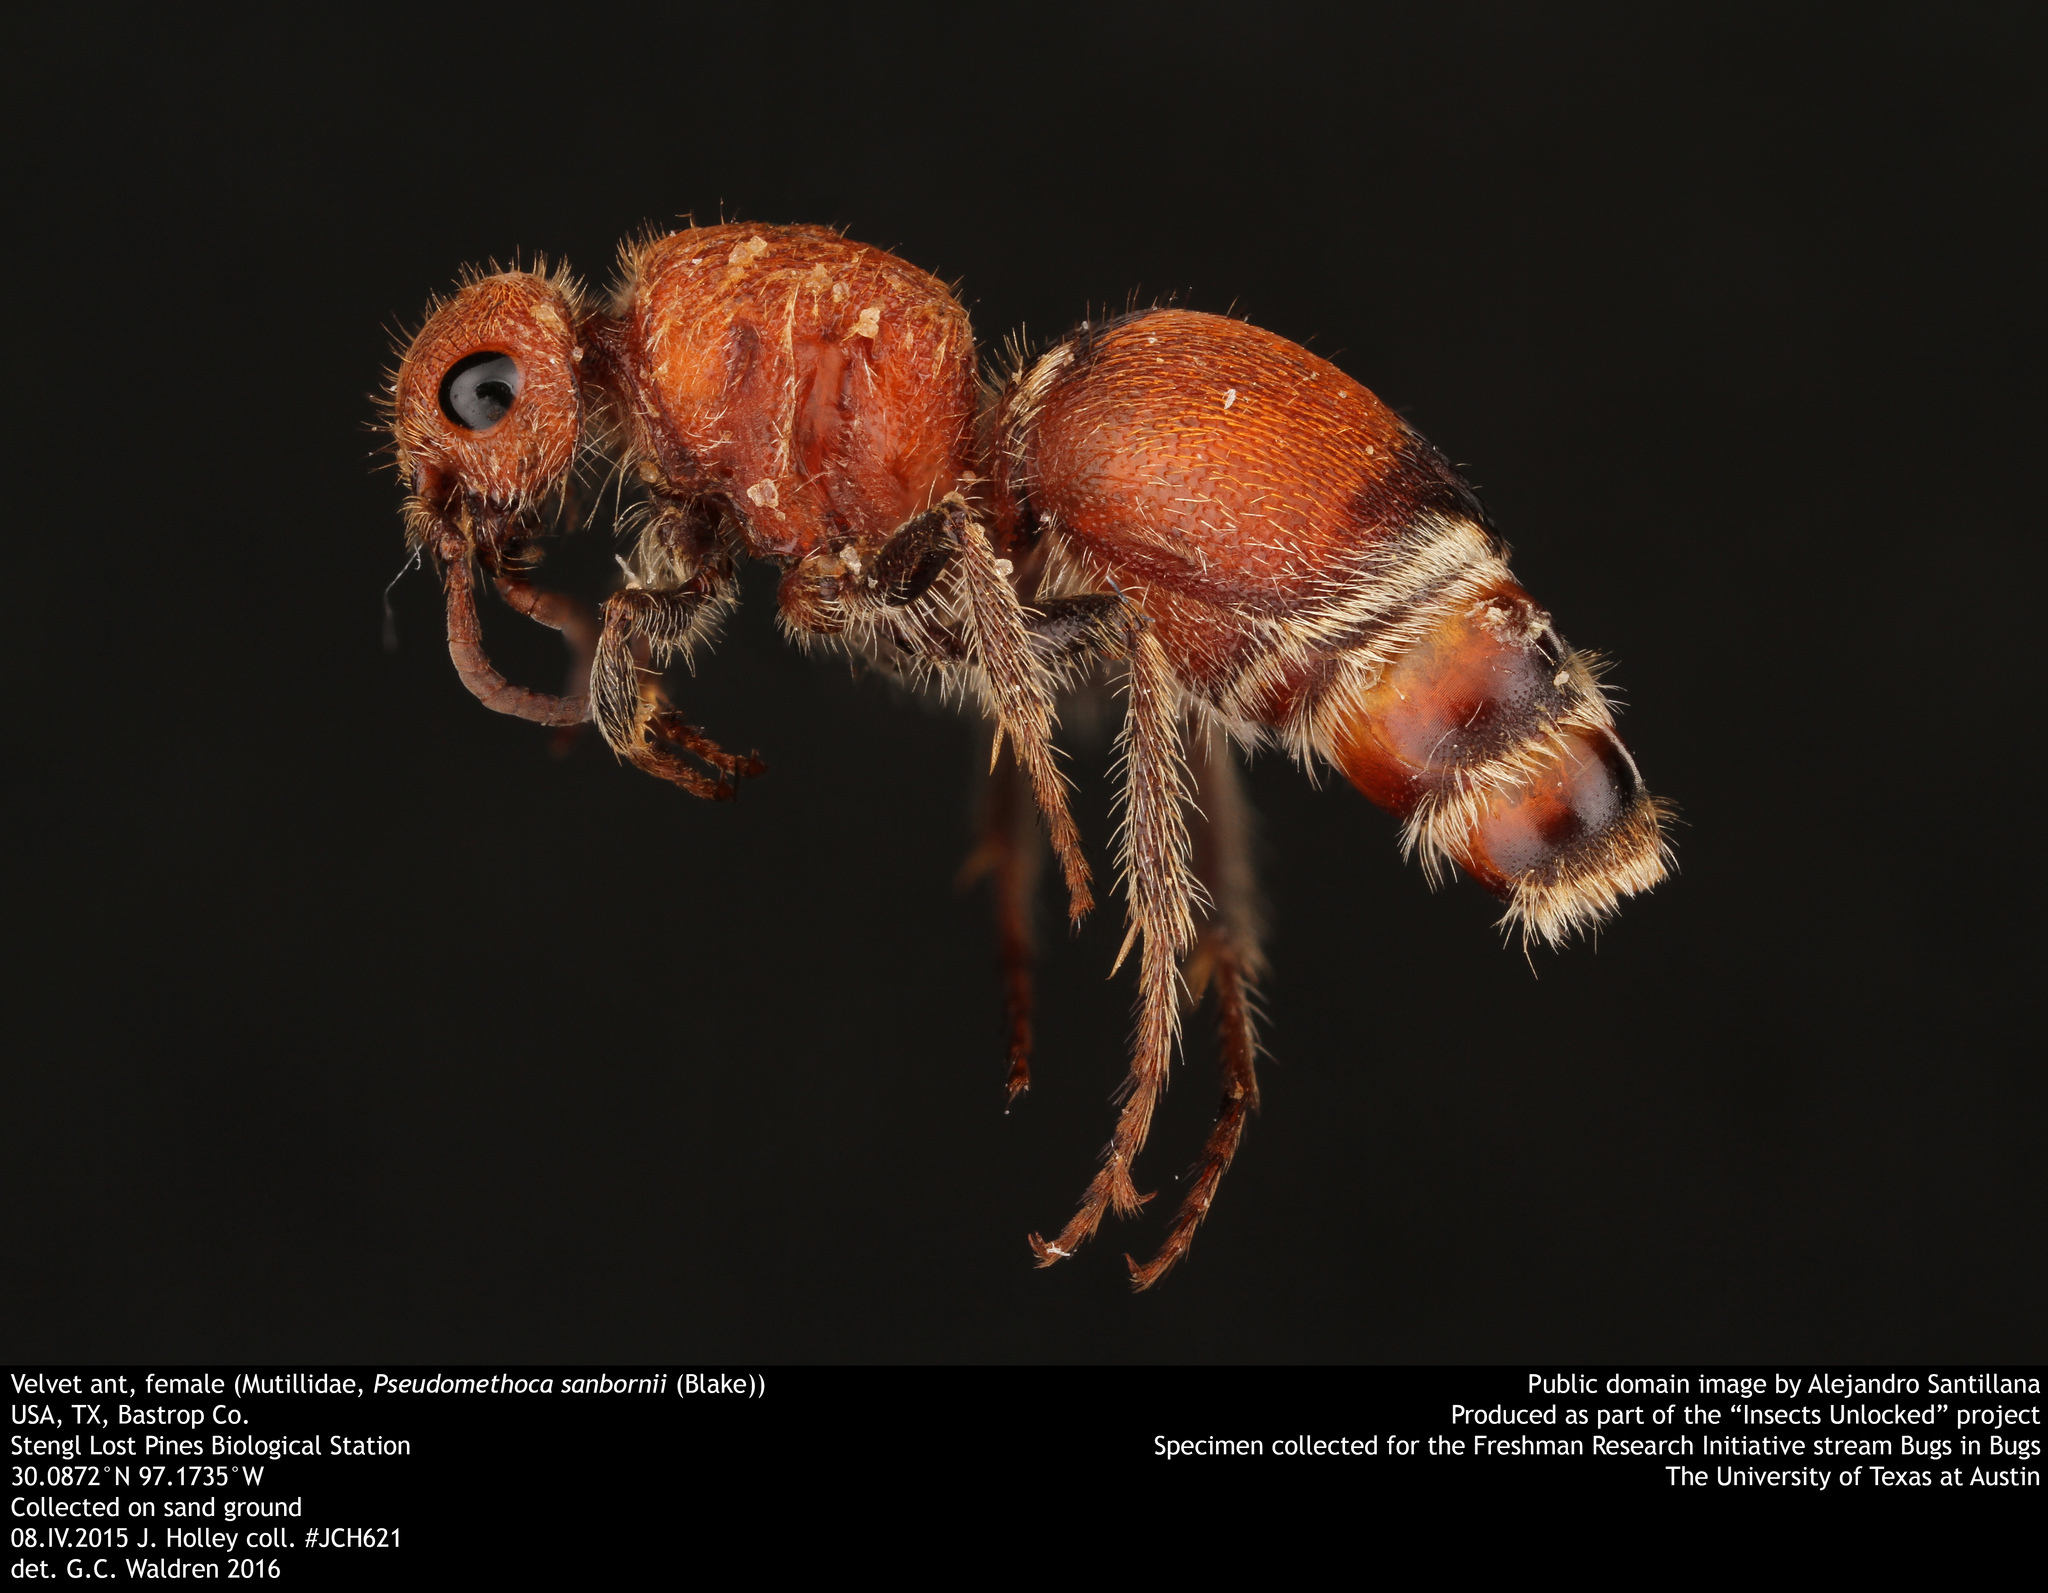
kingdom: Animalia
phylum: Arthropoda
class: Insecta
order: Hymenoptera
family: Mutillidae
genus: Pseudomethoca
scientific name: Pseudomethoca sanbornii
